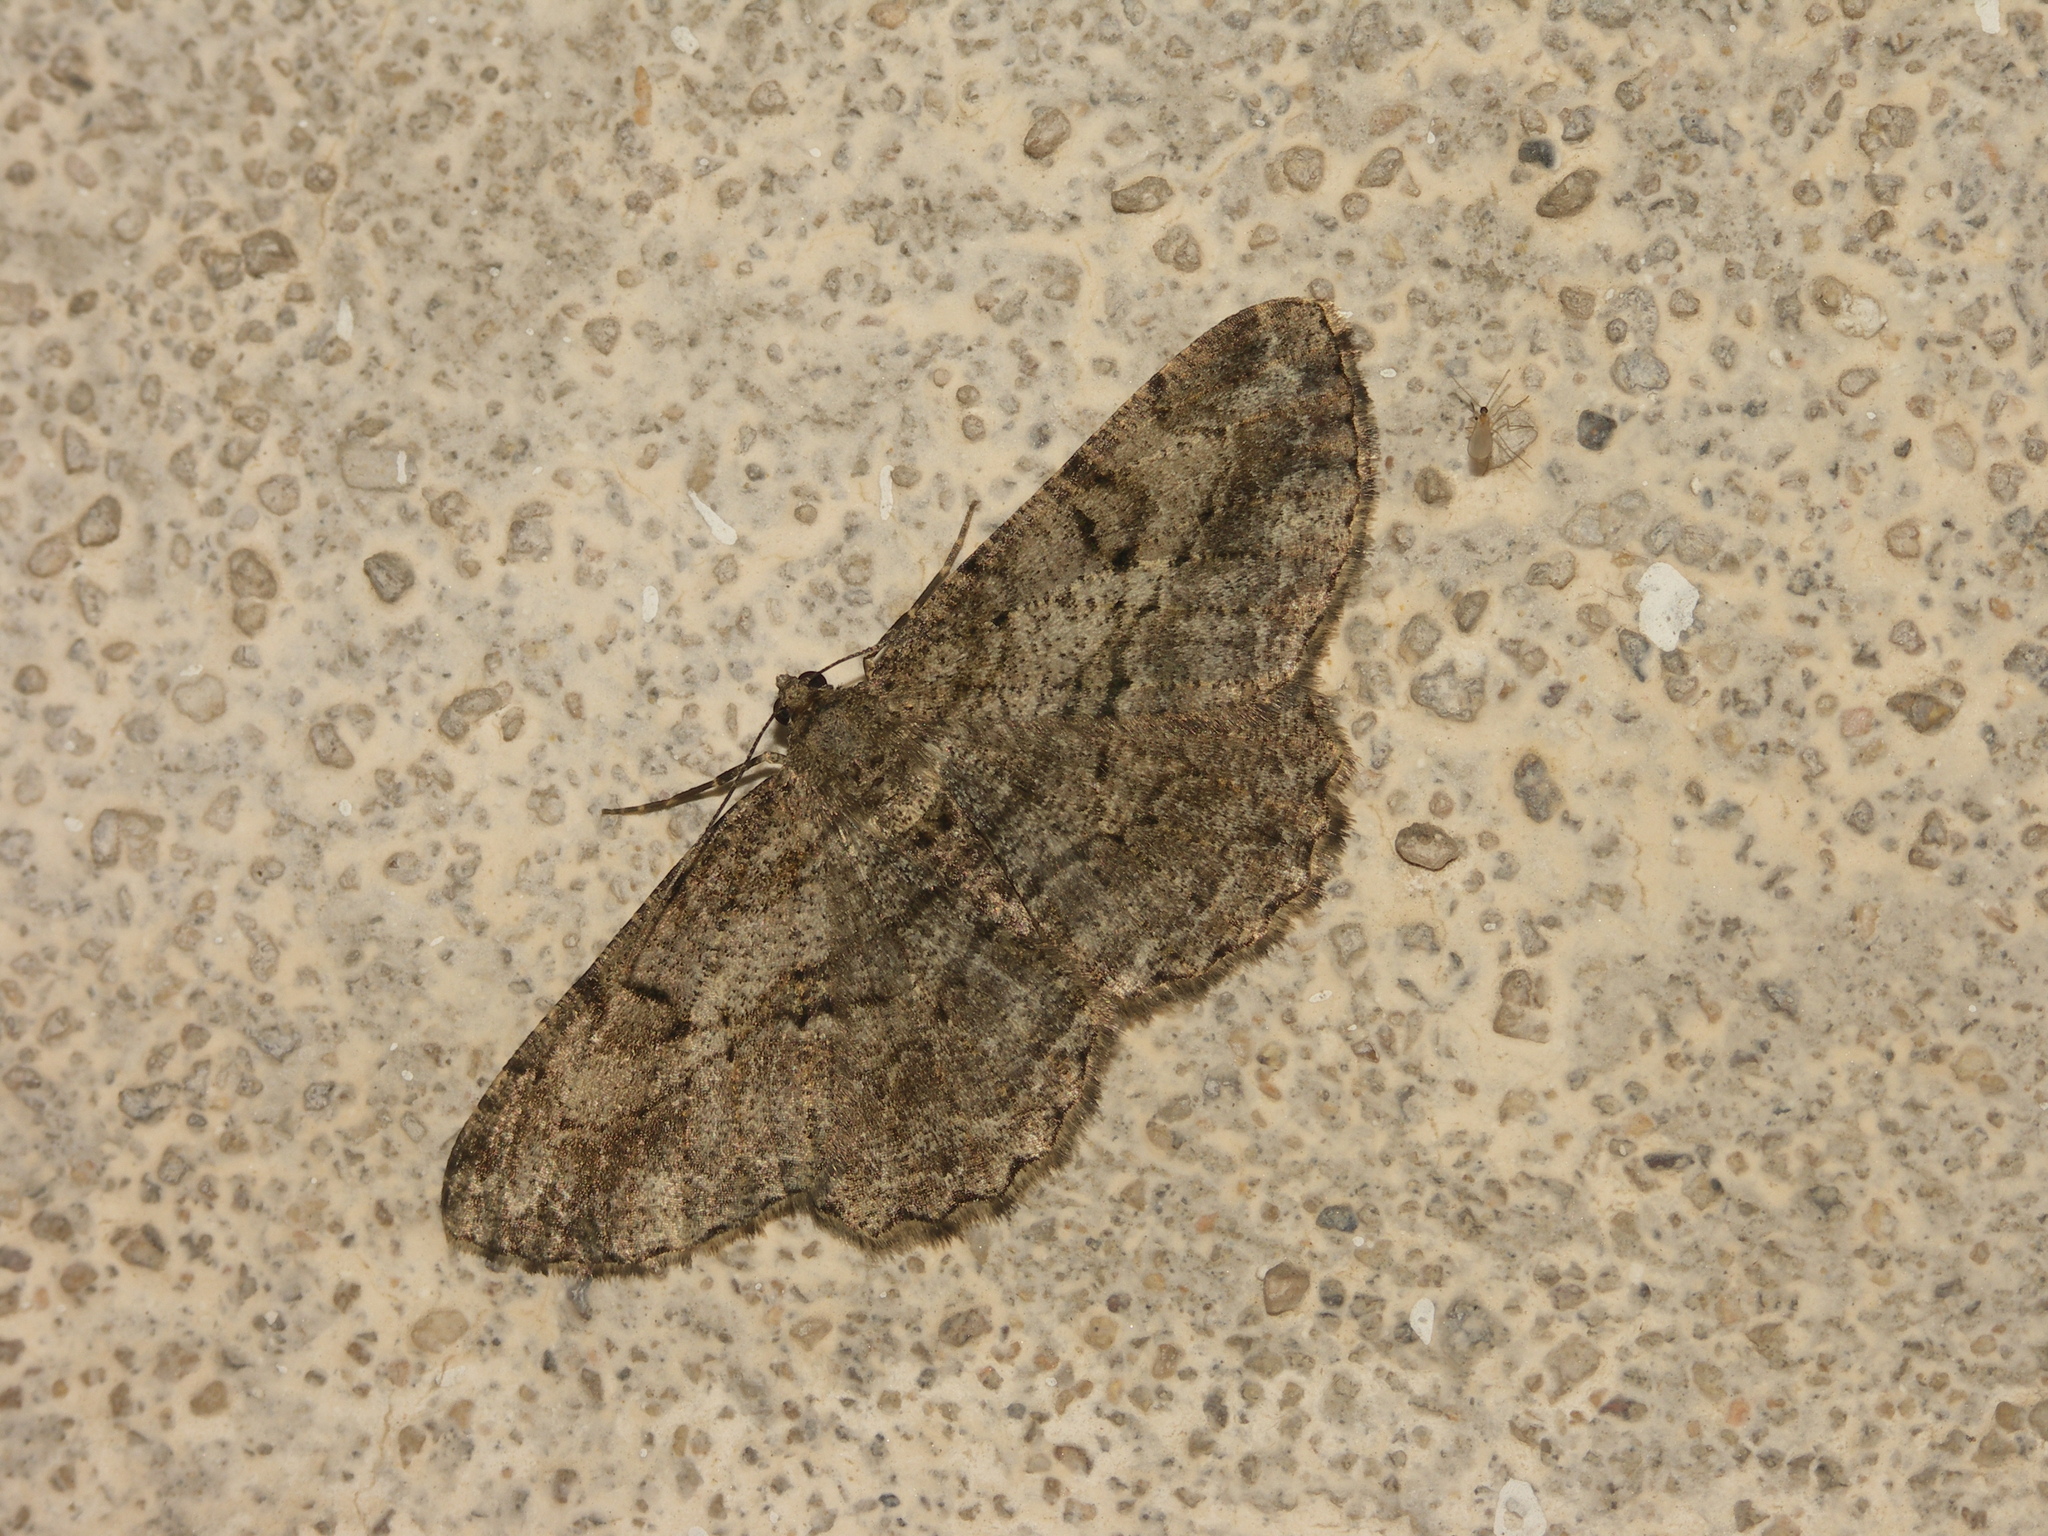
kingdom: Animalia
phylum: Arthropoda
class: Insecta
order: Lepidoptera
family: Geometridae
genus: Peribatodes
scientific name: Peribatodes rhomboidaria
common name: Willow beauty
